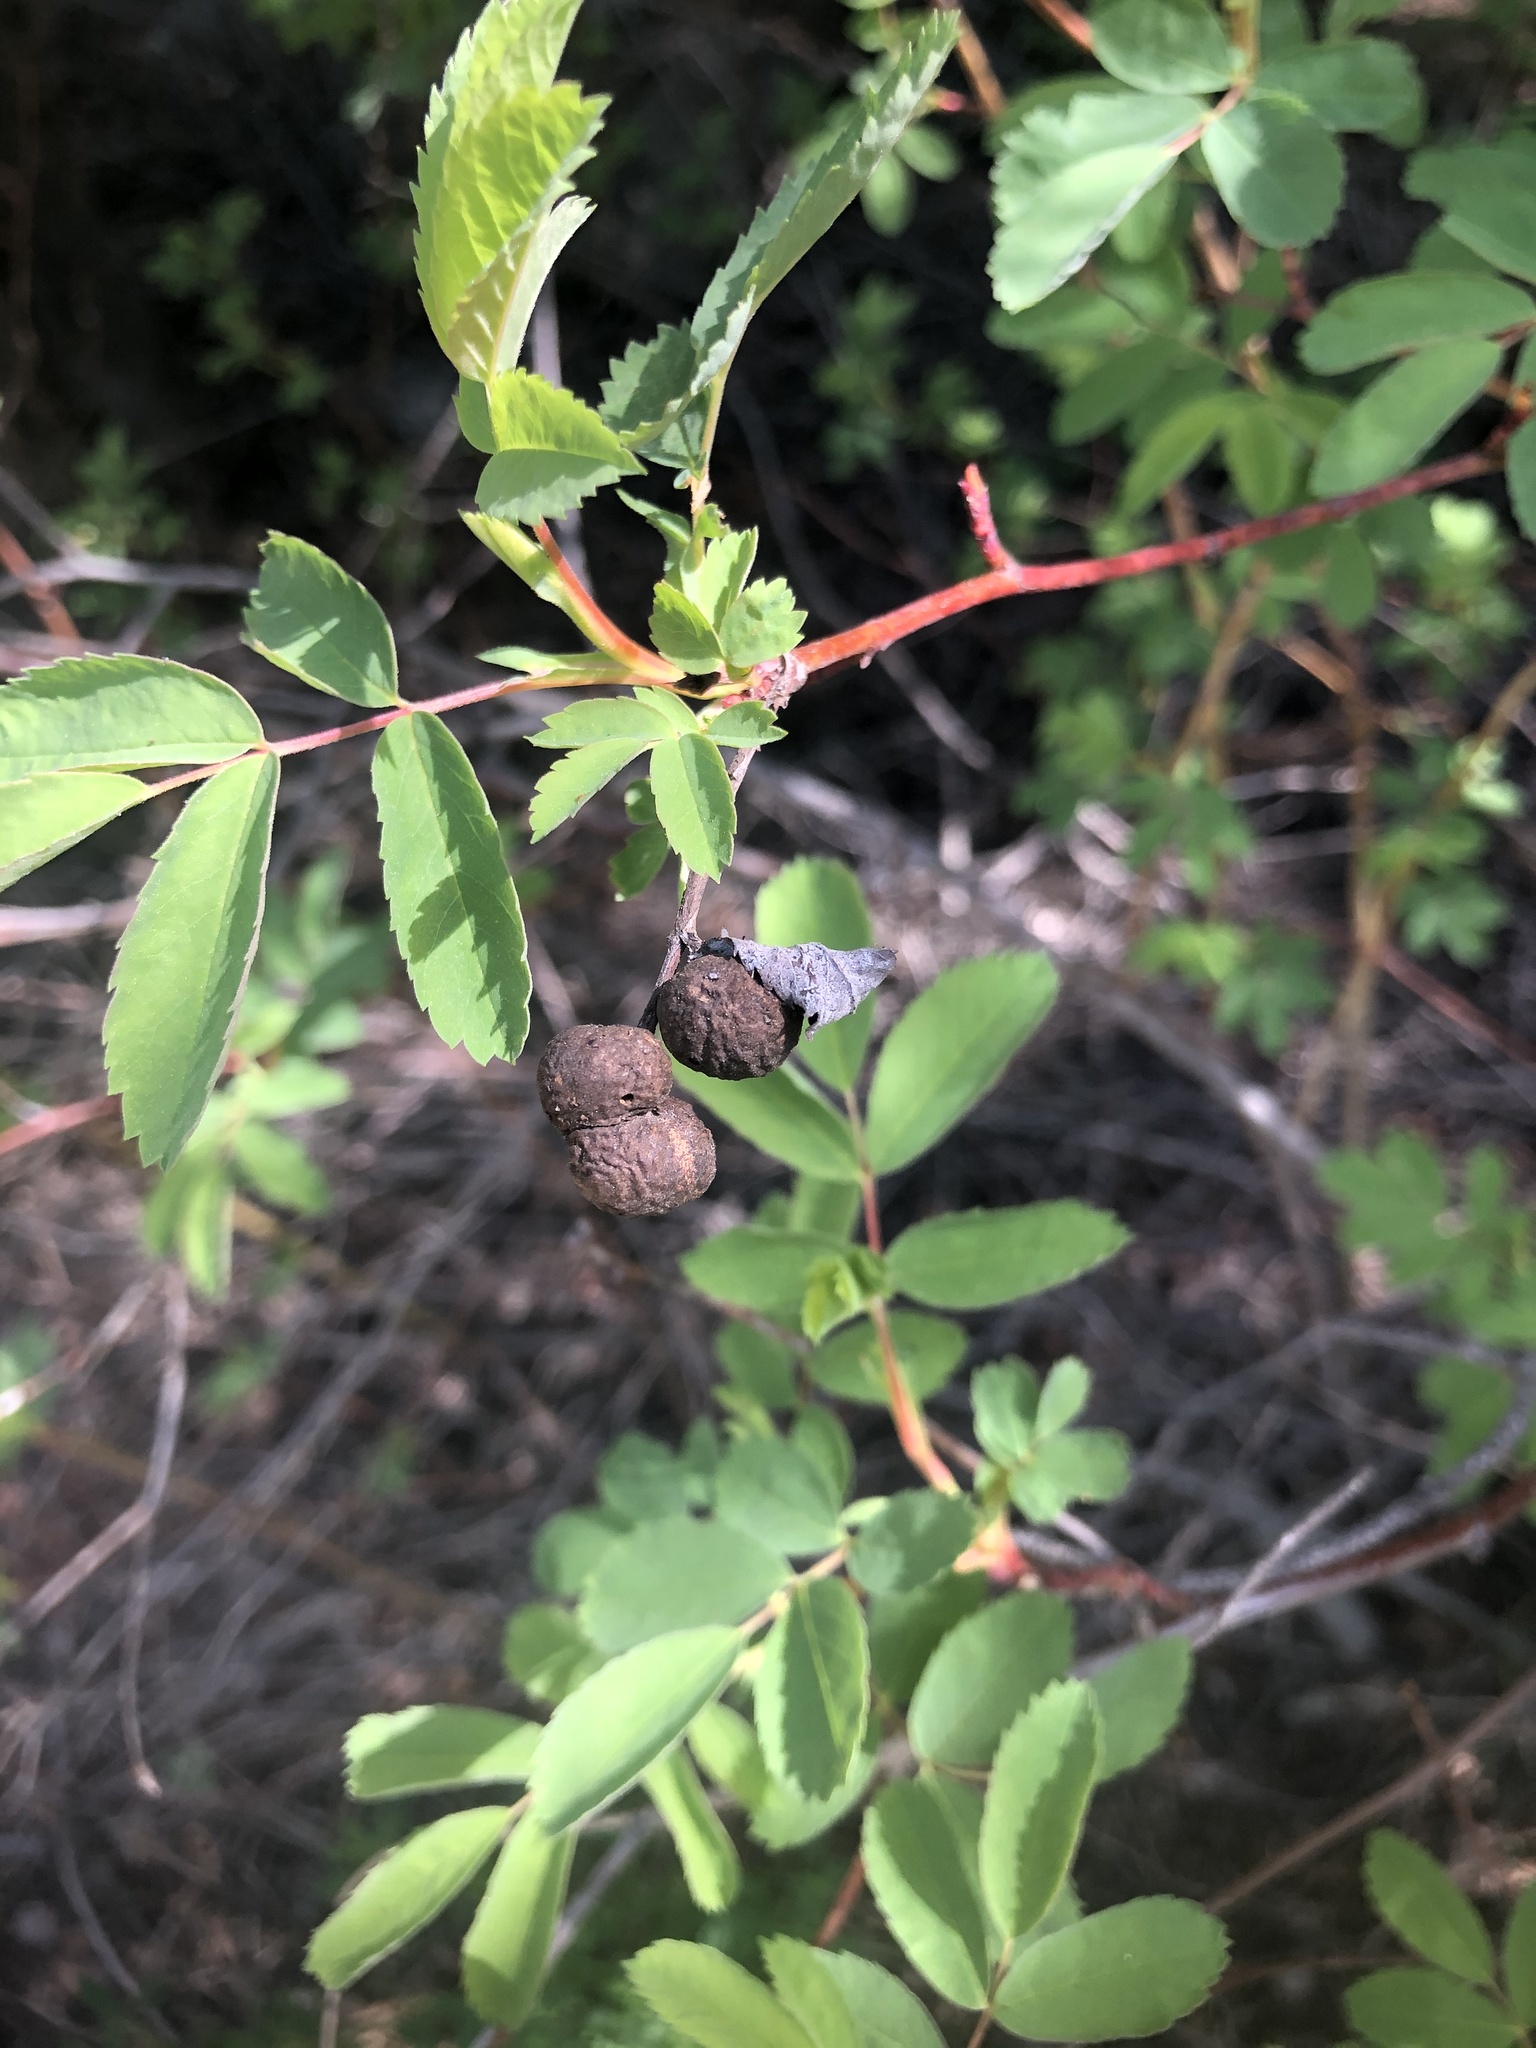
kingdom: Animalia
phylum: Arthropoda
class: Insecta
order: Hymenoptera
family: Cynipidae
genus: Diplolepis
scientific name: Diplolepis variabilis
